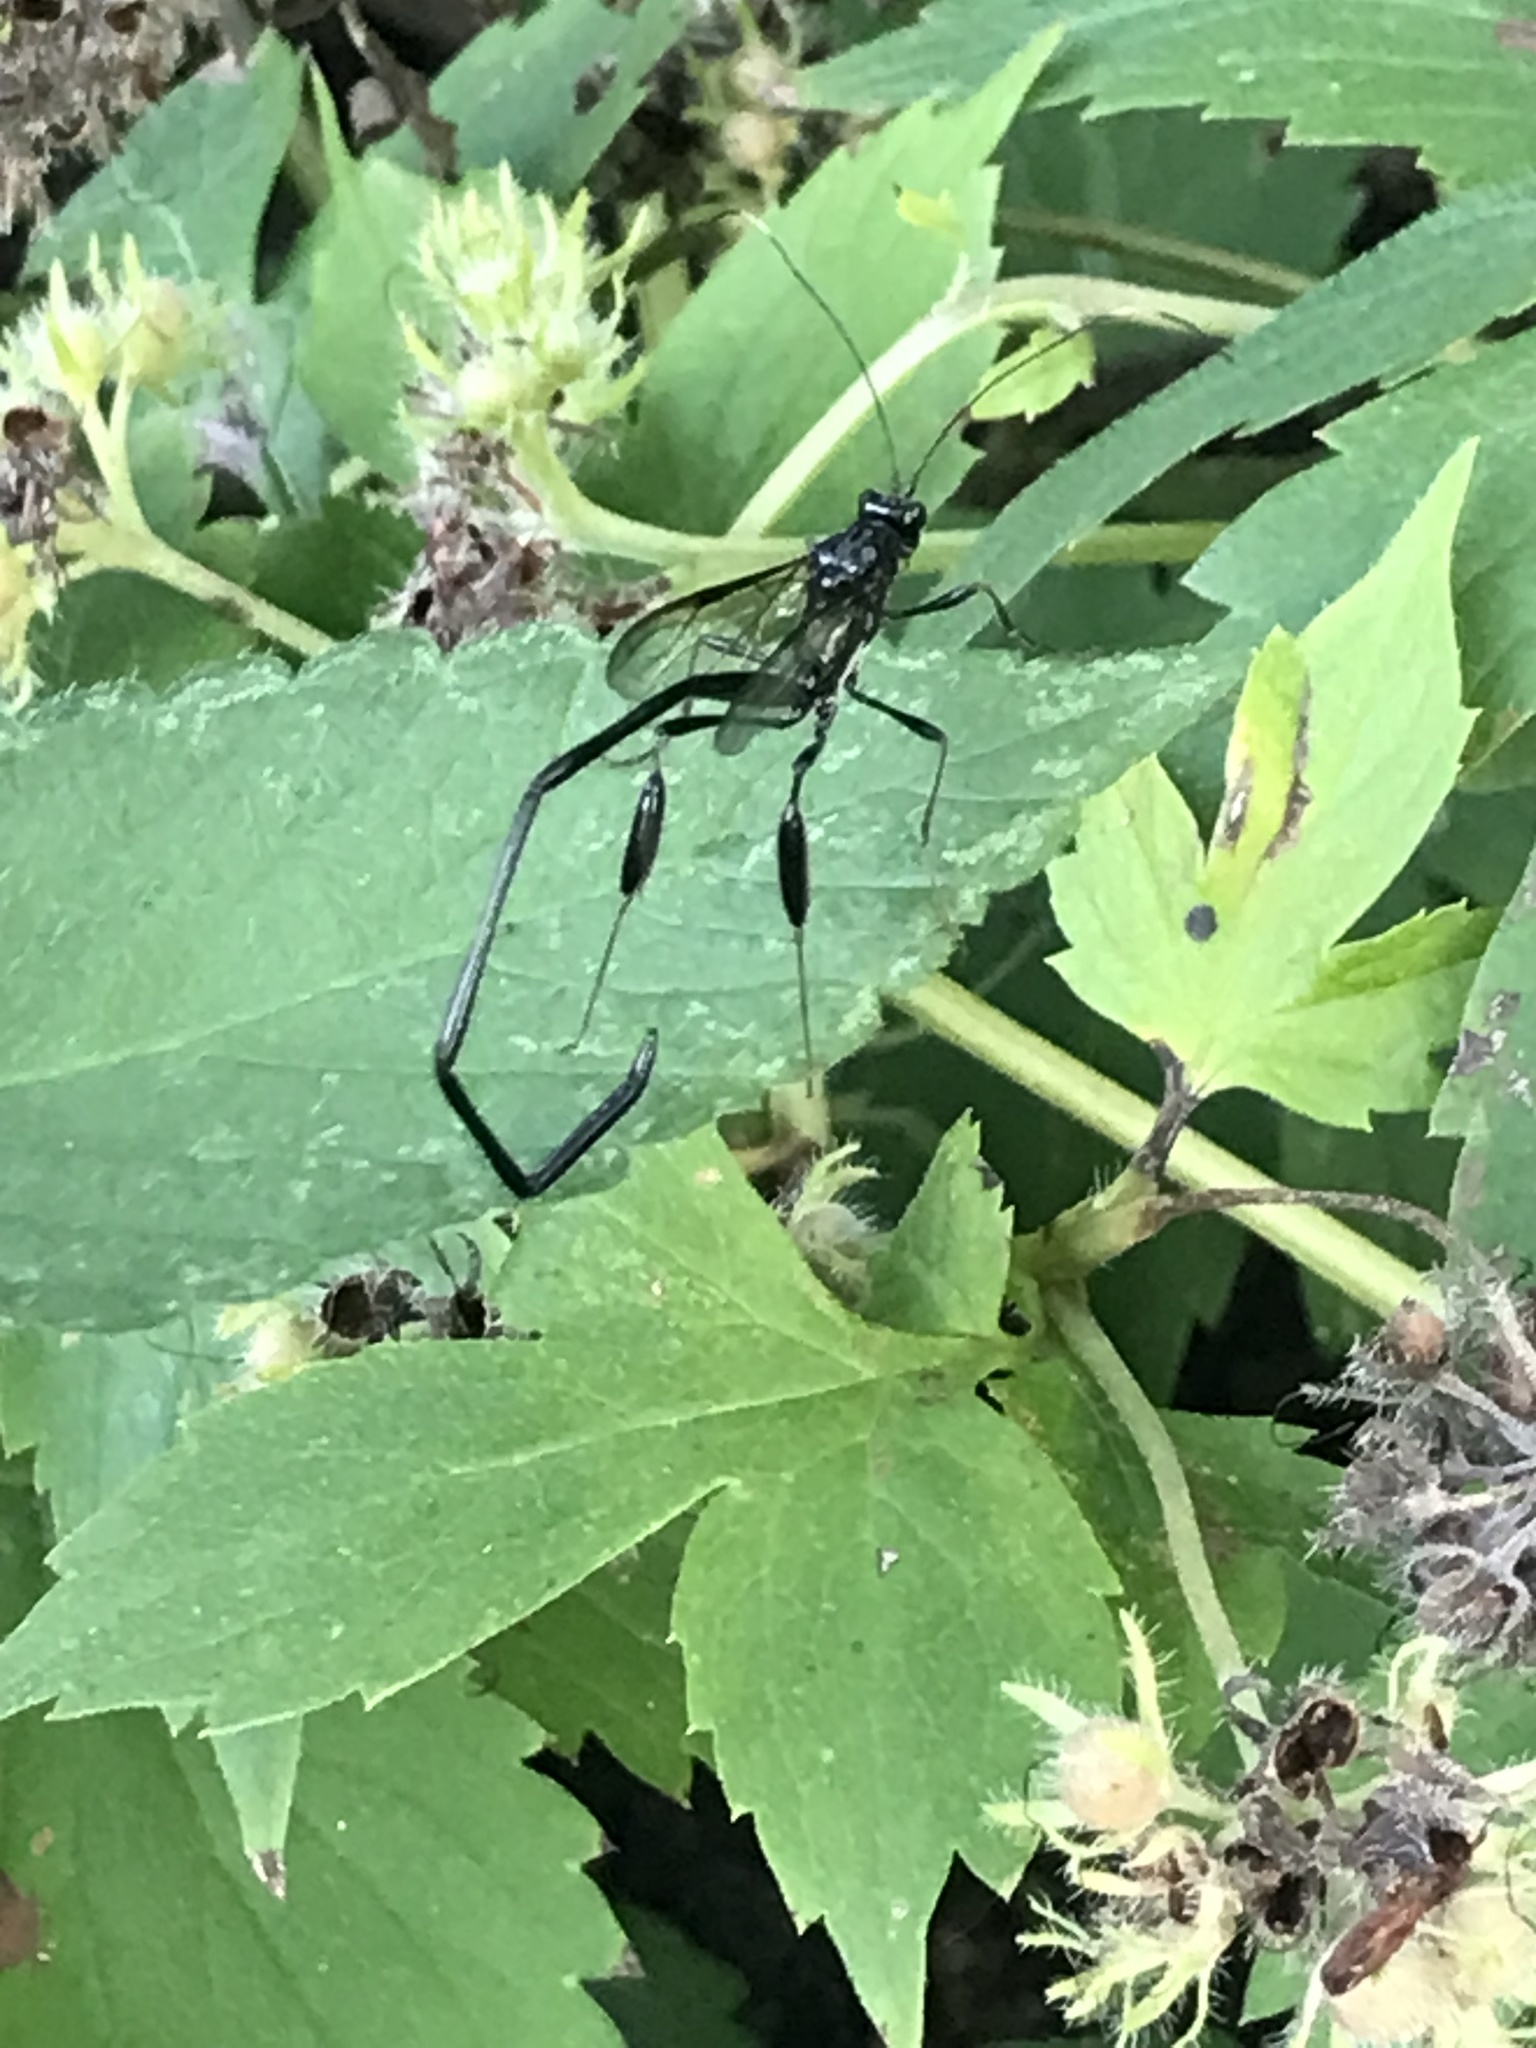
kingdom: Animalia
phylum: Arthropoda
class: Insecta
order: Hymenoptera
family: Pelecinidae
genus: Pelecinus
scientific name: Pelecinus polyturator
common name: American pelecinid wasp
